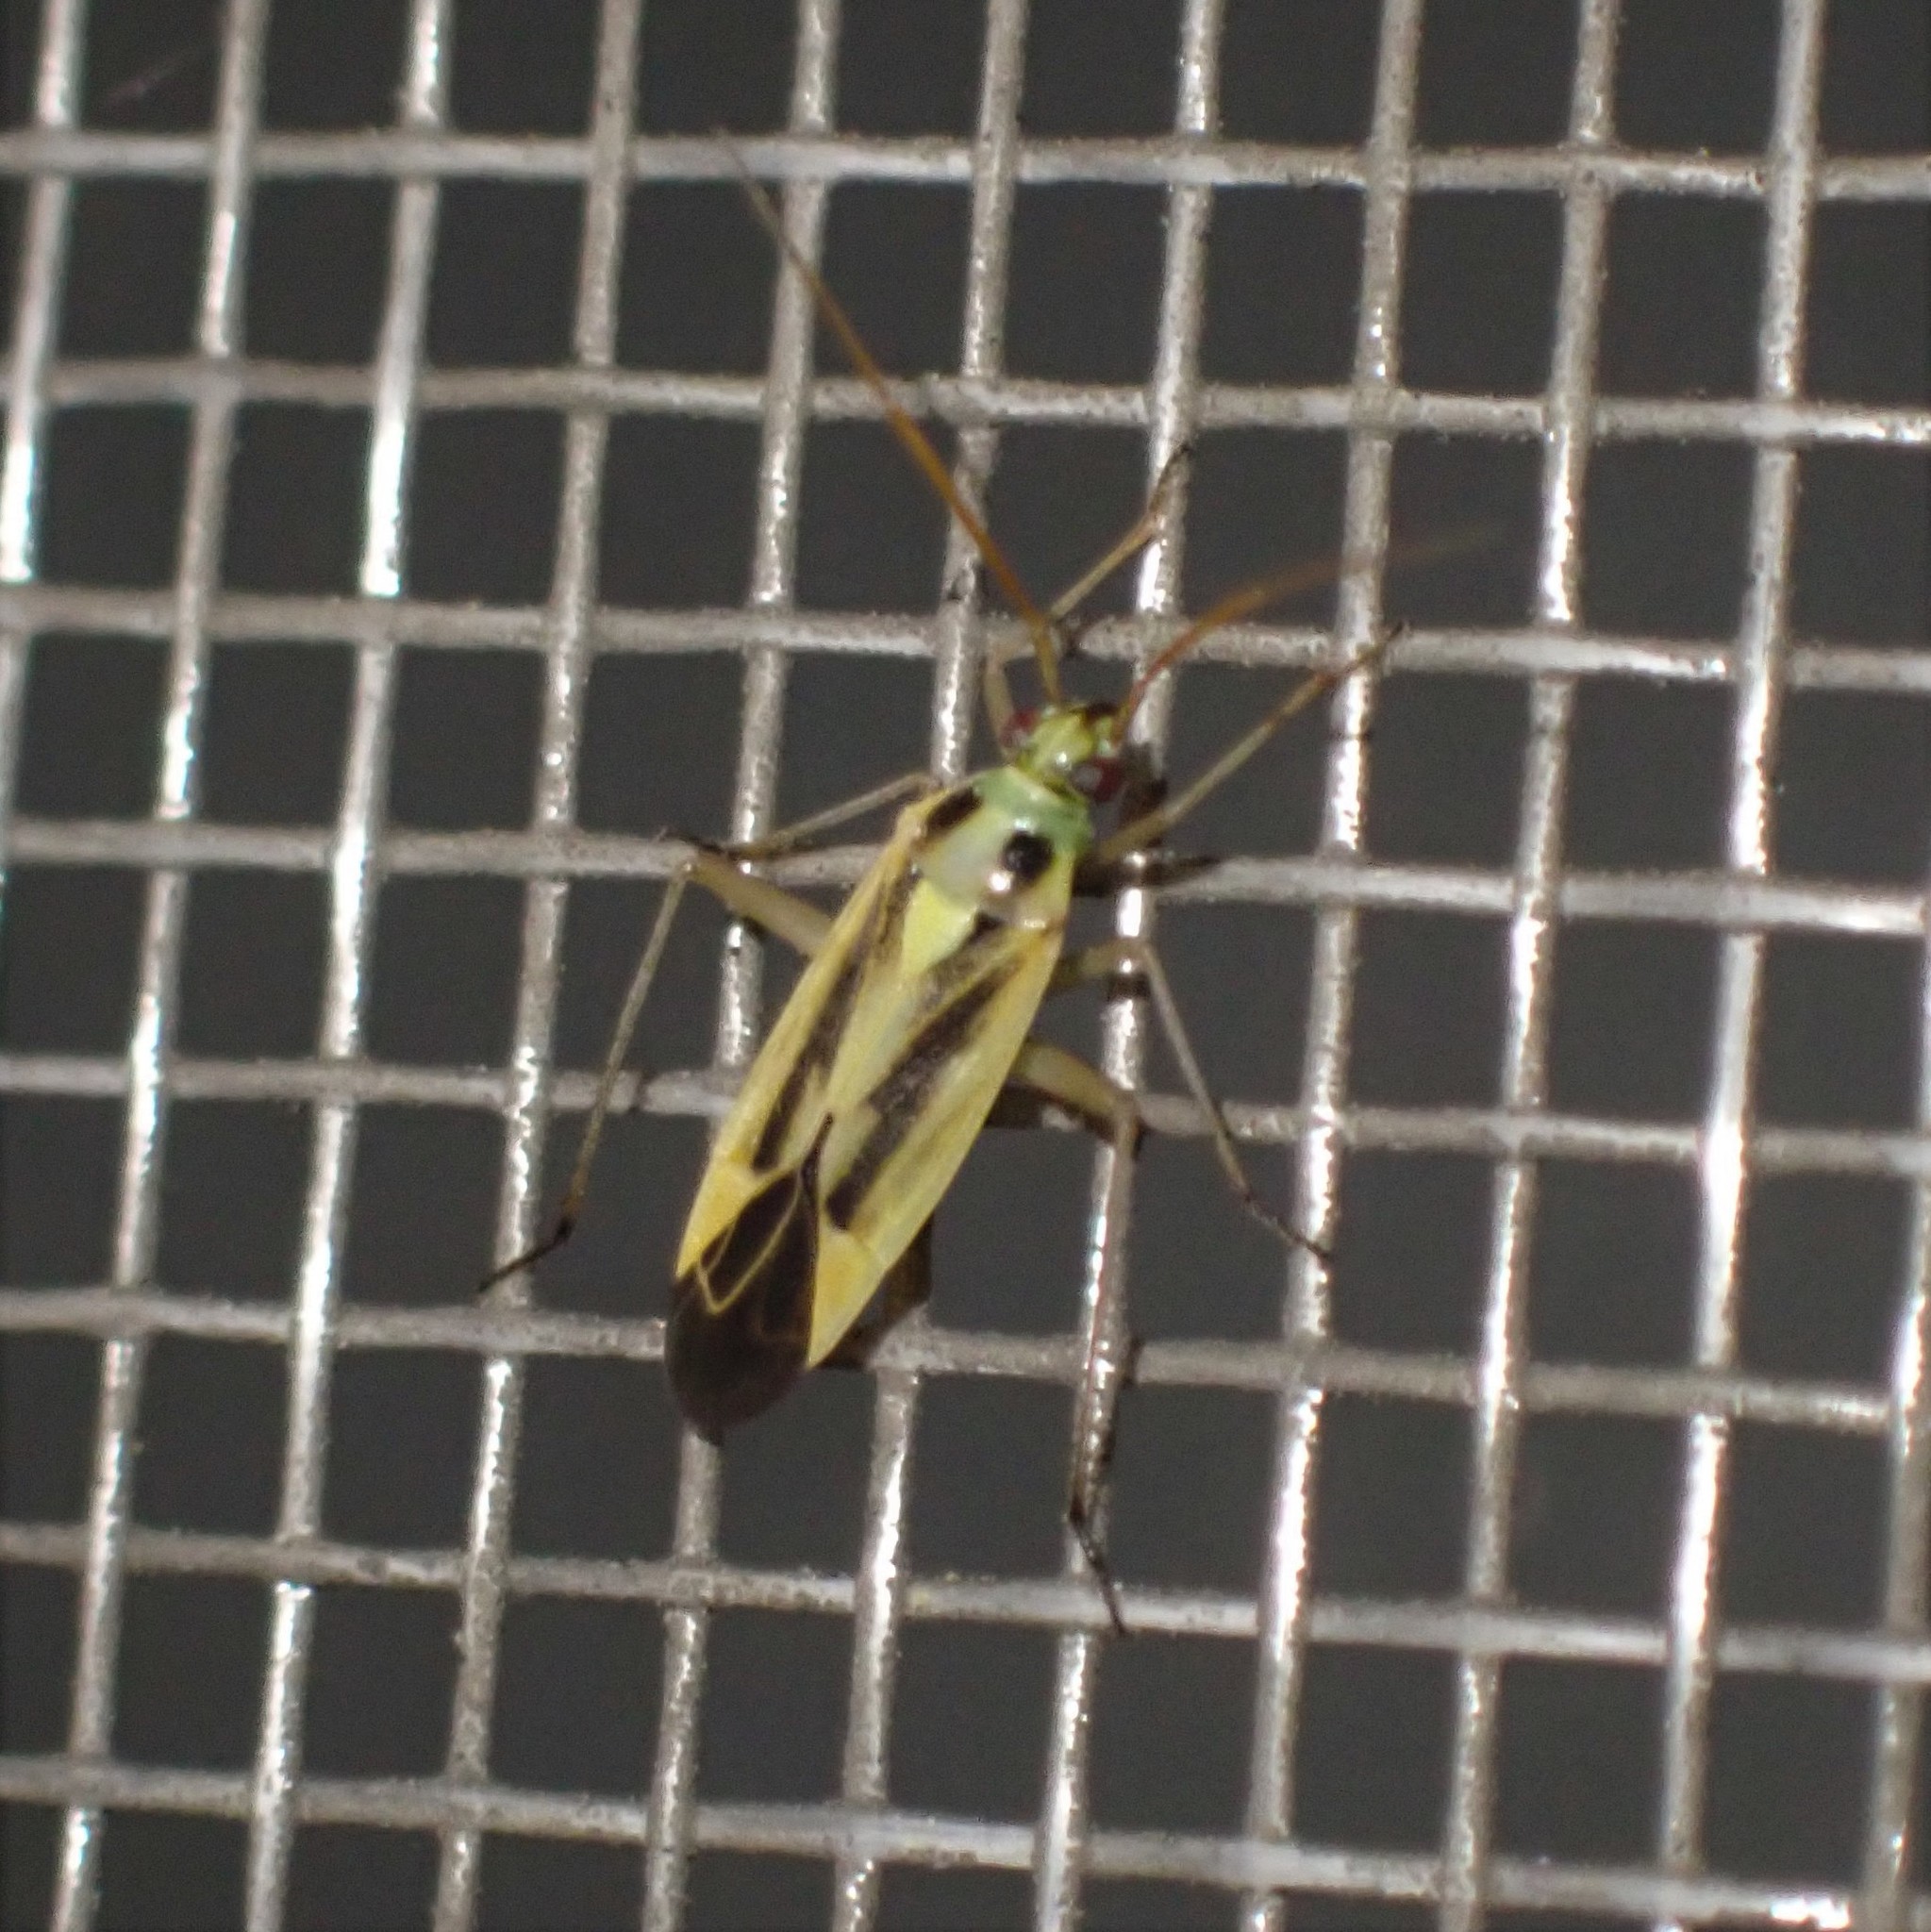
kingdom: Animalia
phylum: Arthropoda
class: Insecta
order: Hemiptera
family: Miridae
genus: Stenotus
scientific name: Stenotus binotatus
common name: Plant bug
